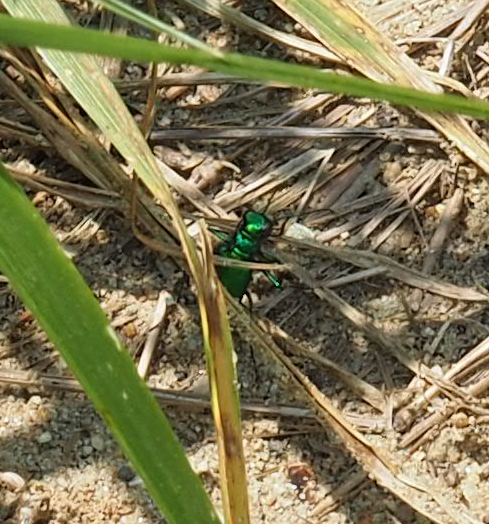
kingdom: Animalia
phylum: Arthropoda
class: Insecta
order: Coleoptera
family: Carabidae
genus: Cicindela
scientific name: Cicindela sexguttata
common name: Six-spotted tiger beetle
